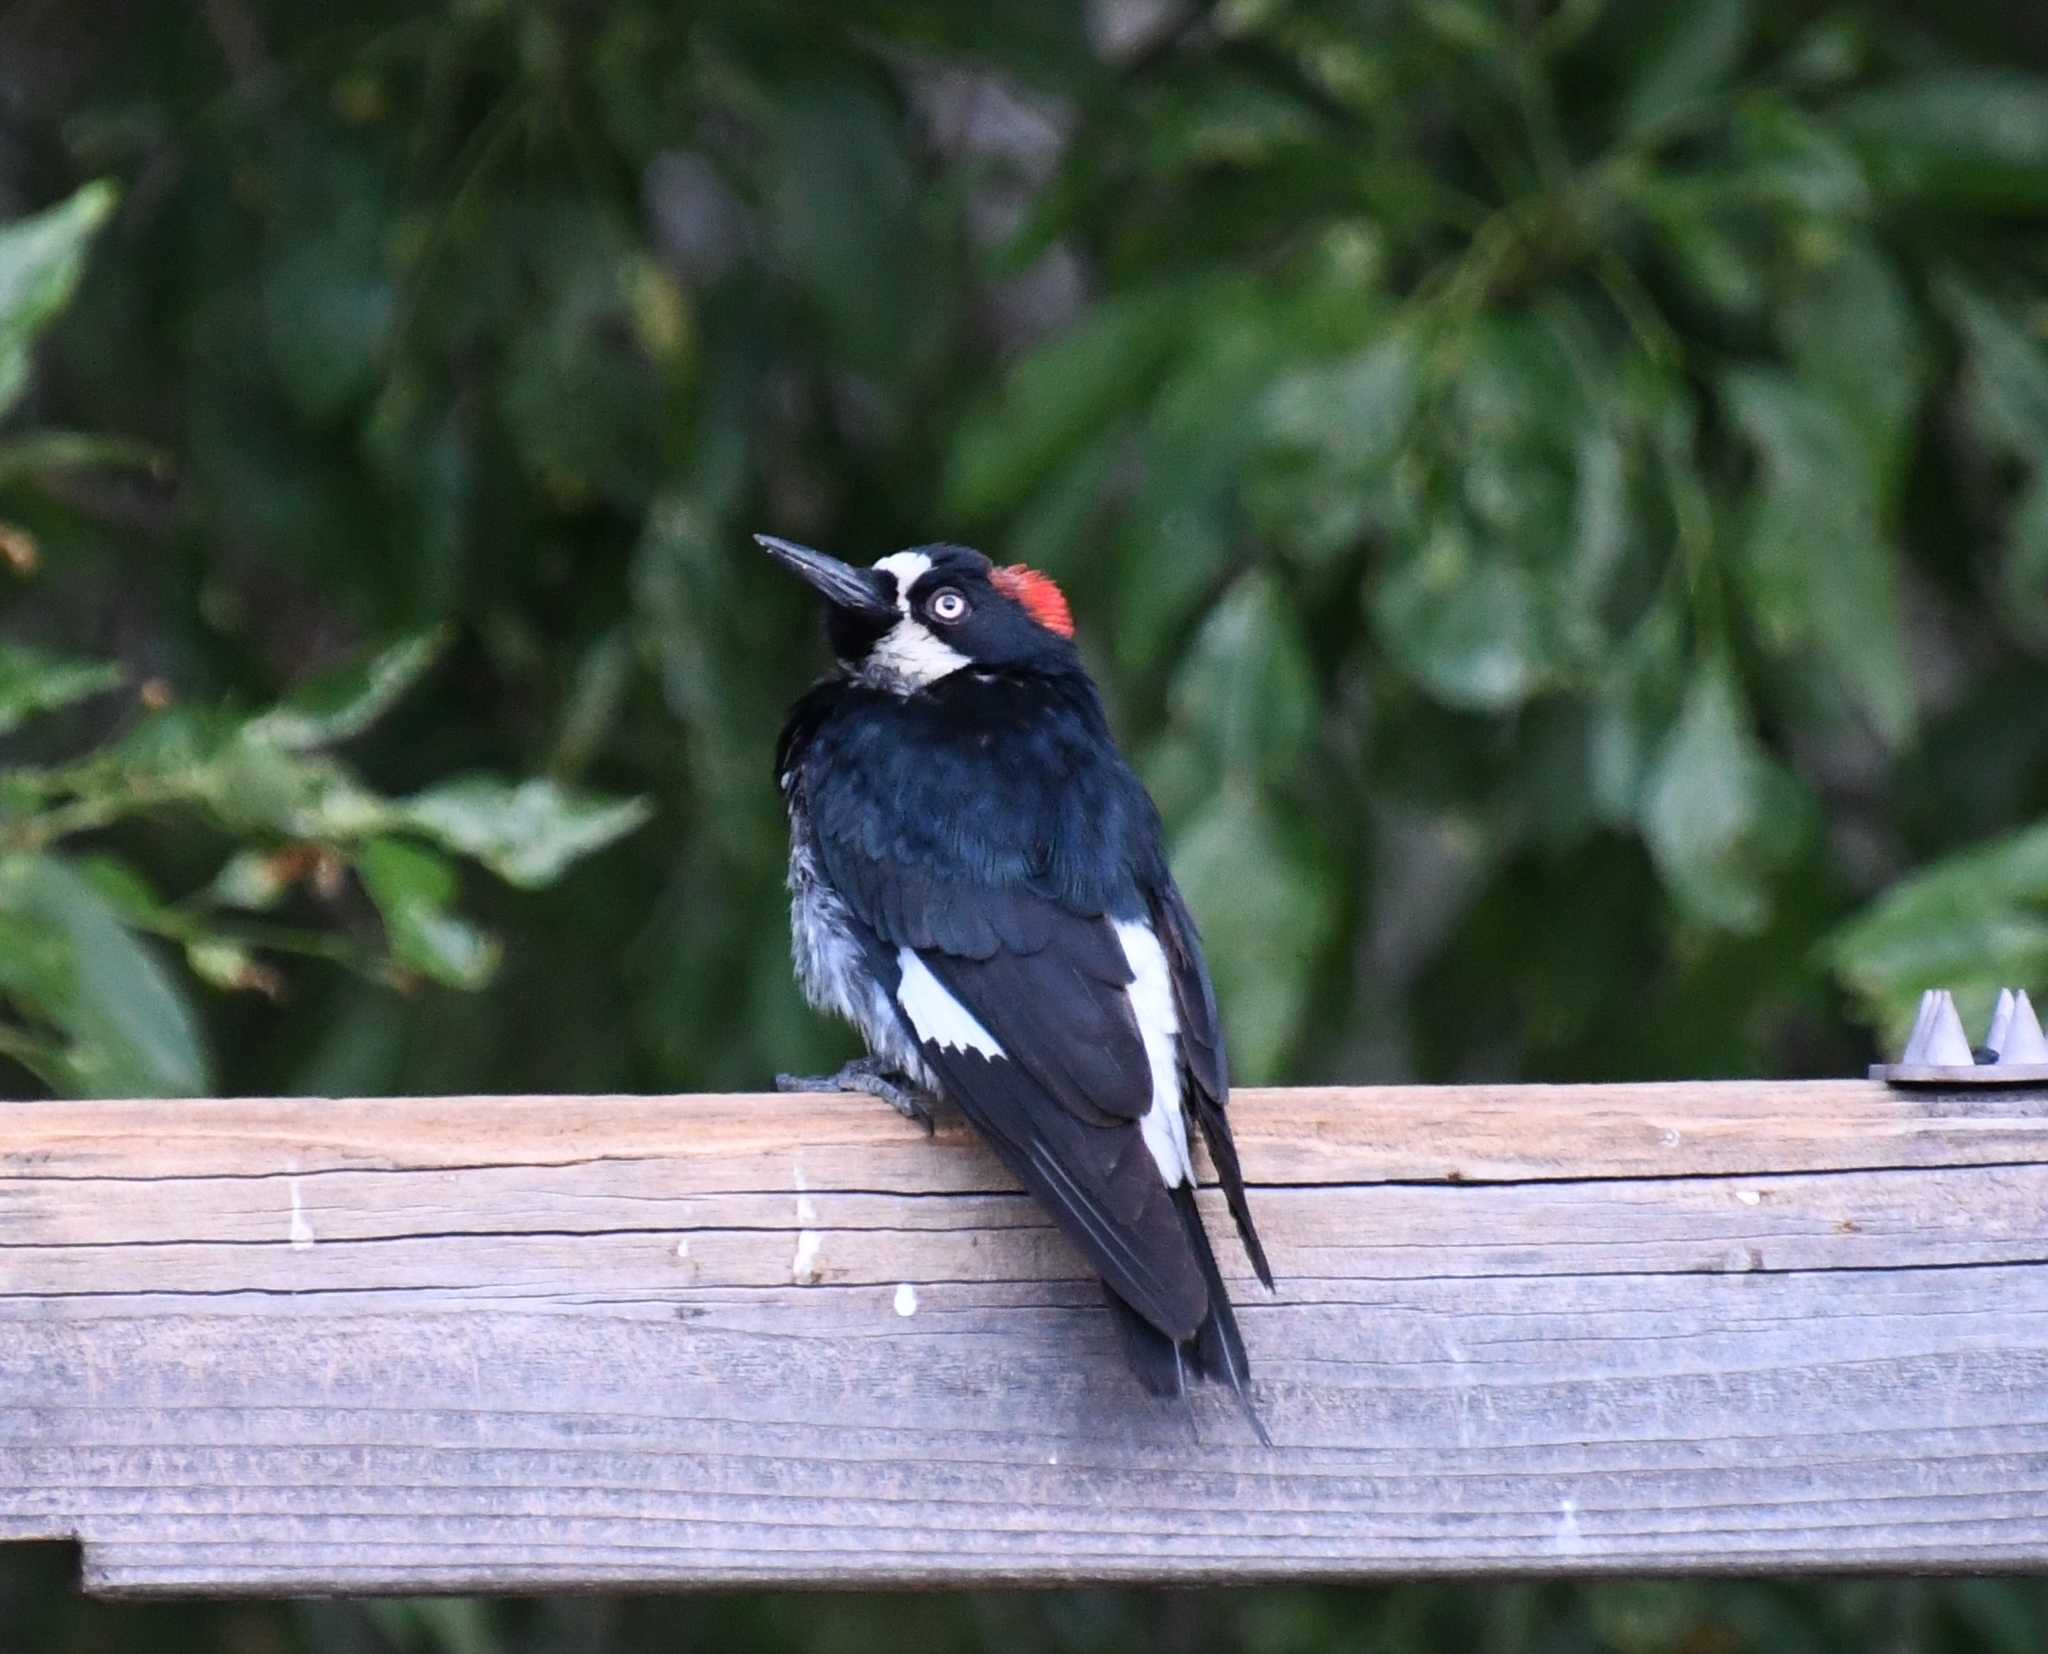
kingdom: Animalia
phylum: Chordata
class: Aves
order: Piciformes
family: Picidae
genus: Melanerpes
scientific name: Melanerpes formicivorus
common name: Acorn woodpecker
